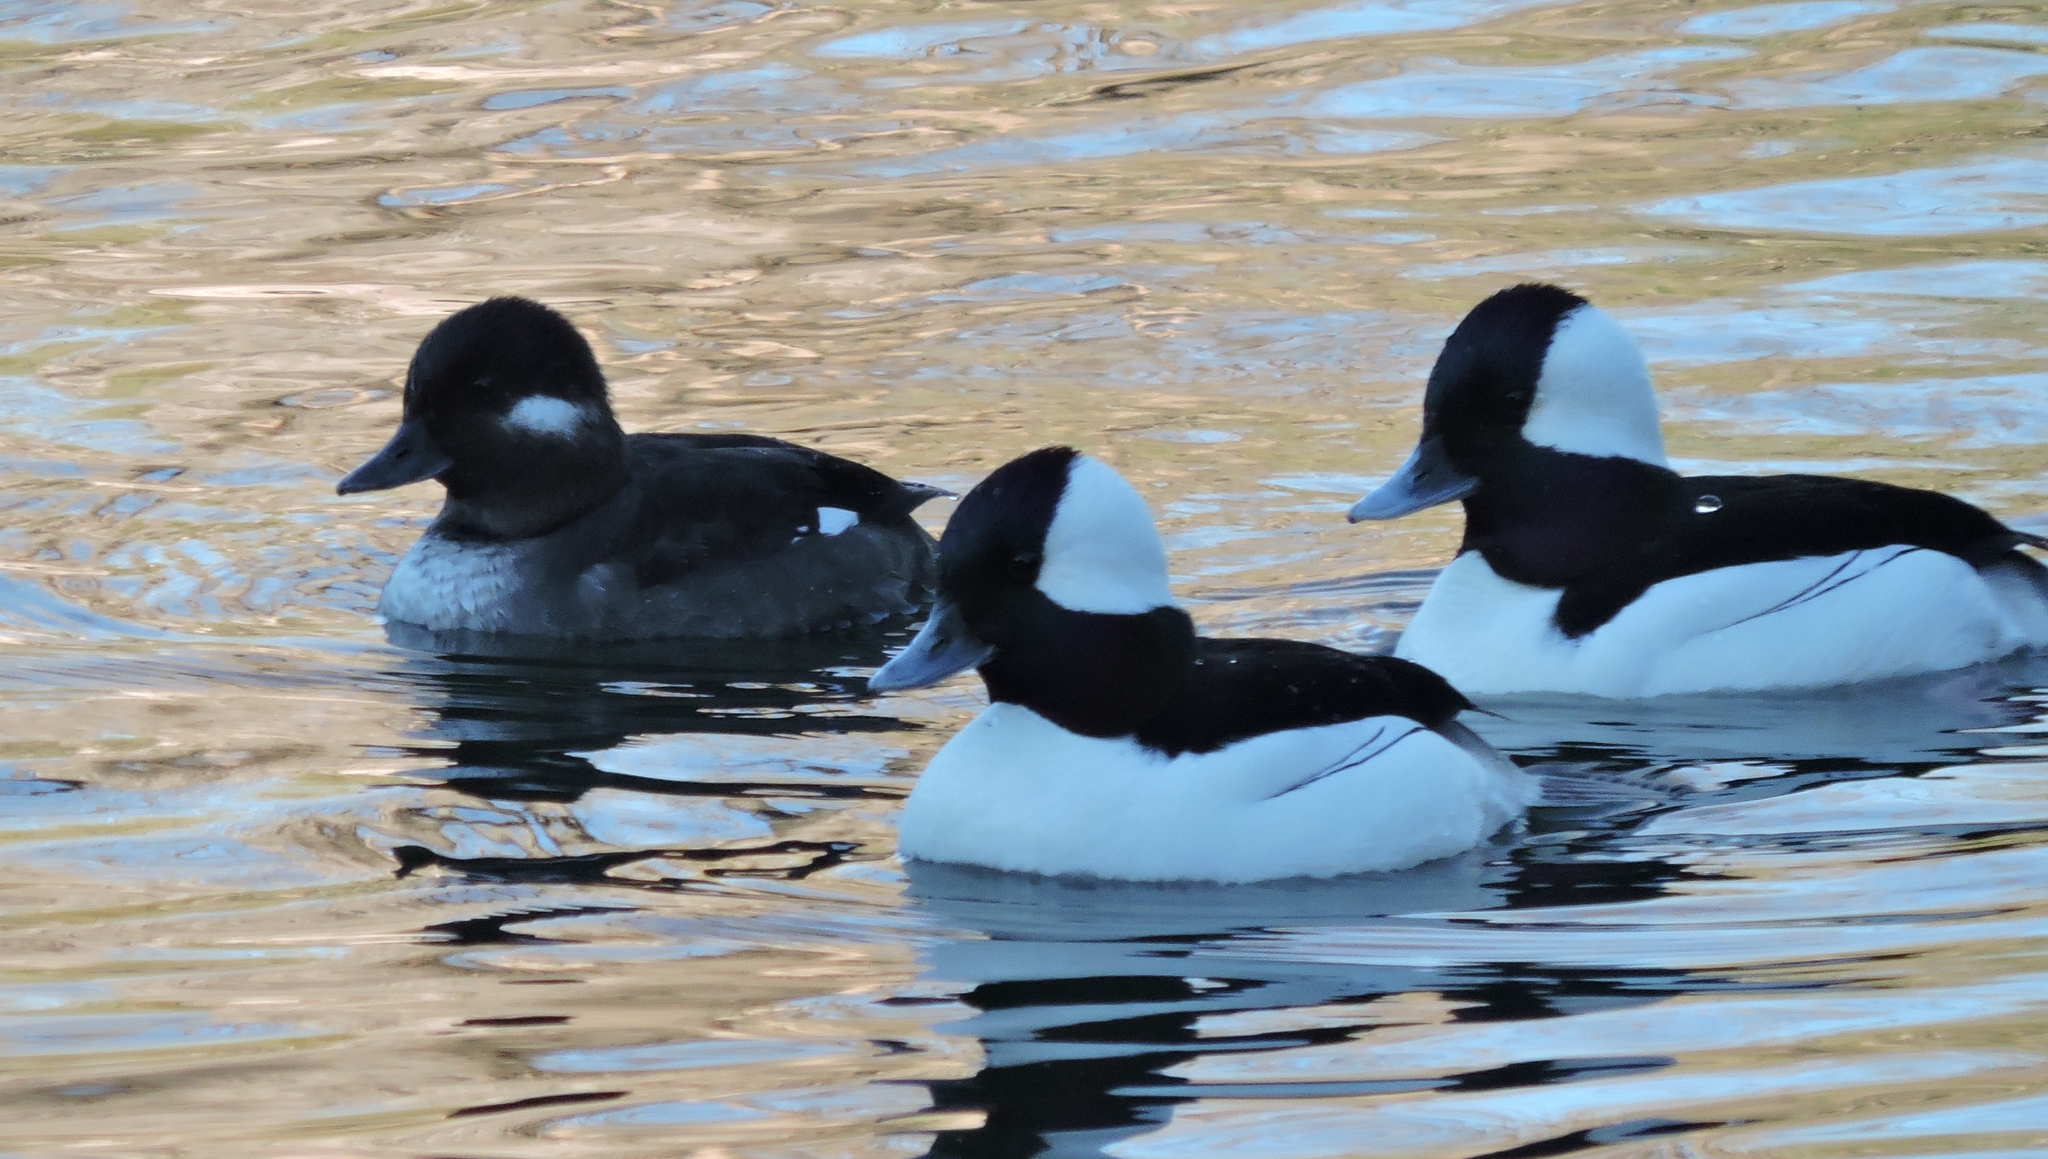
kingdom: Animalia
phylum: Chordata
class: Aves
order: Anseriformes
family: Anatidae
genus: Bucephala
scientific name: Bucephala albeola
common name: Bufflehead
